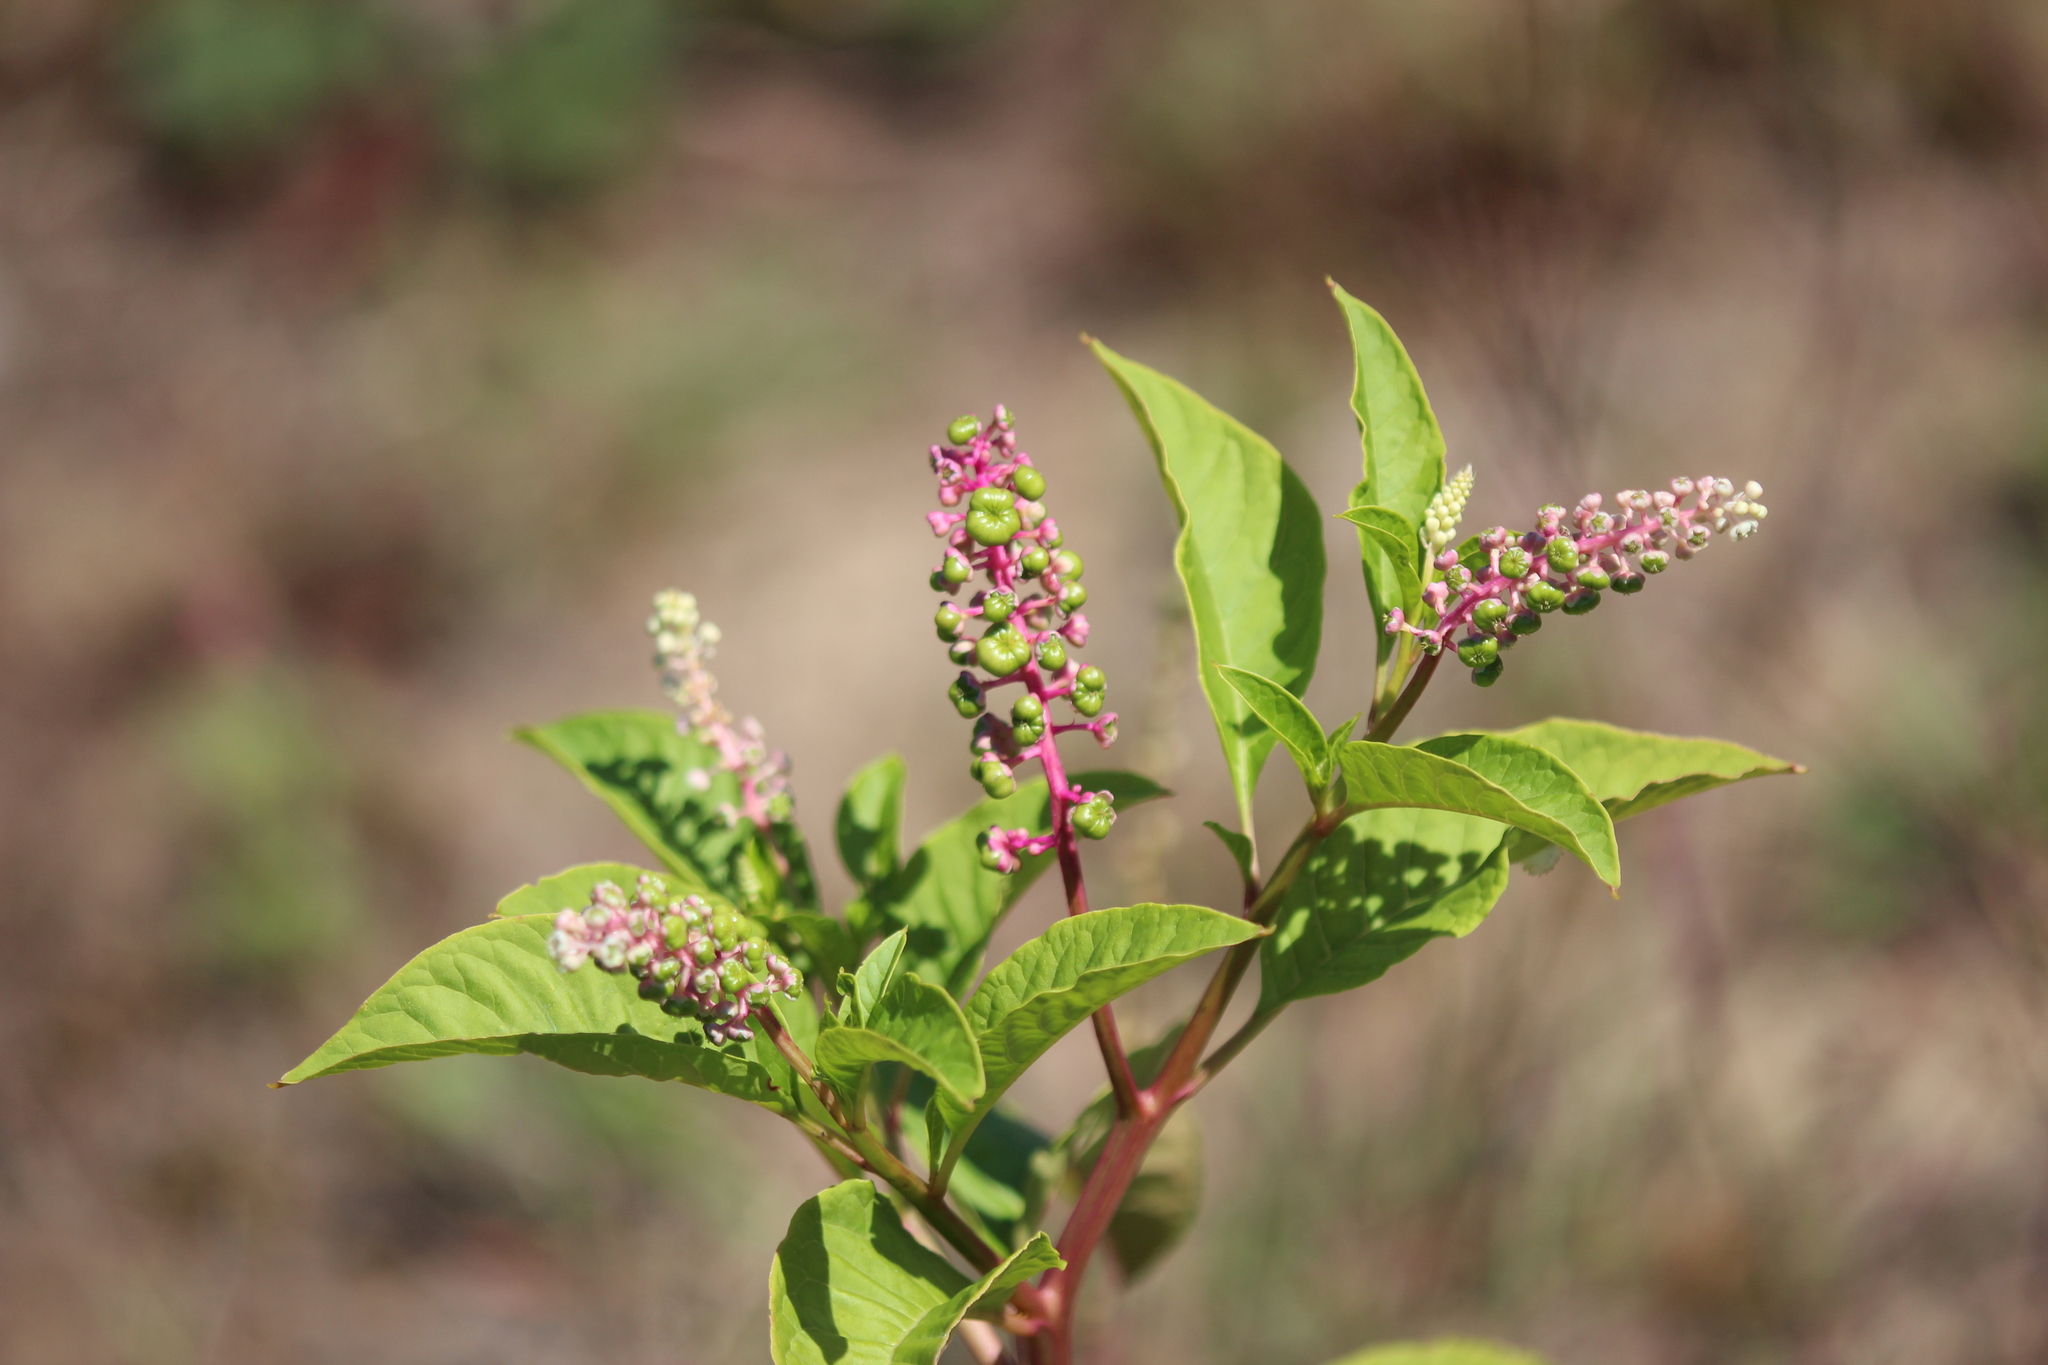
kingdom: Plantae
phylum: Tracheophyta
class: Magnoliopsida
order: Caryophyllales
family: Phytolaccaceae
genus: Phytolacca
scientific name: Phytolacca americana
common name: American pokeweed
